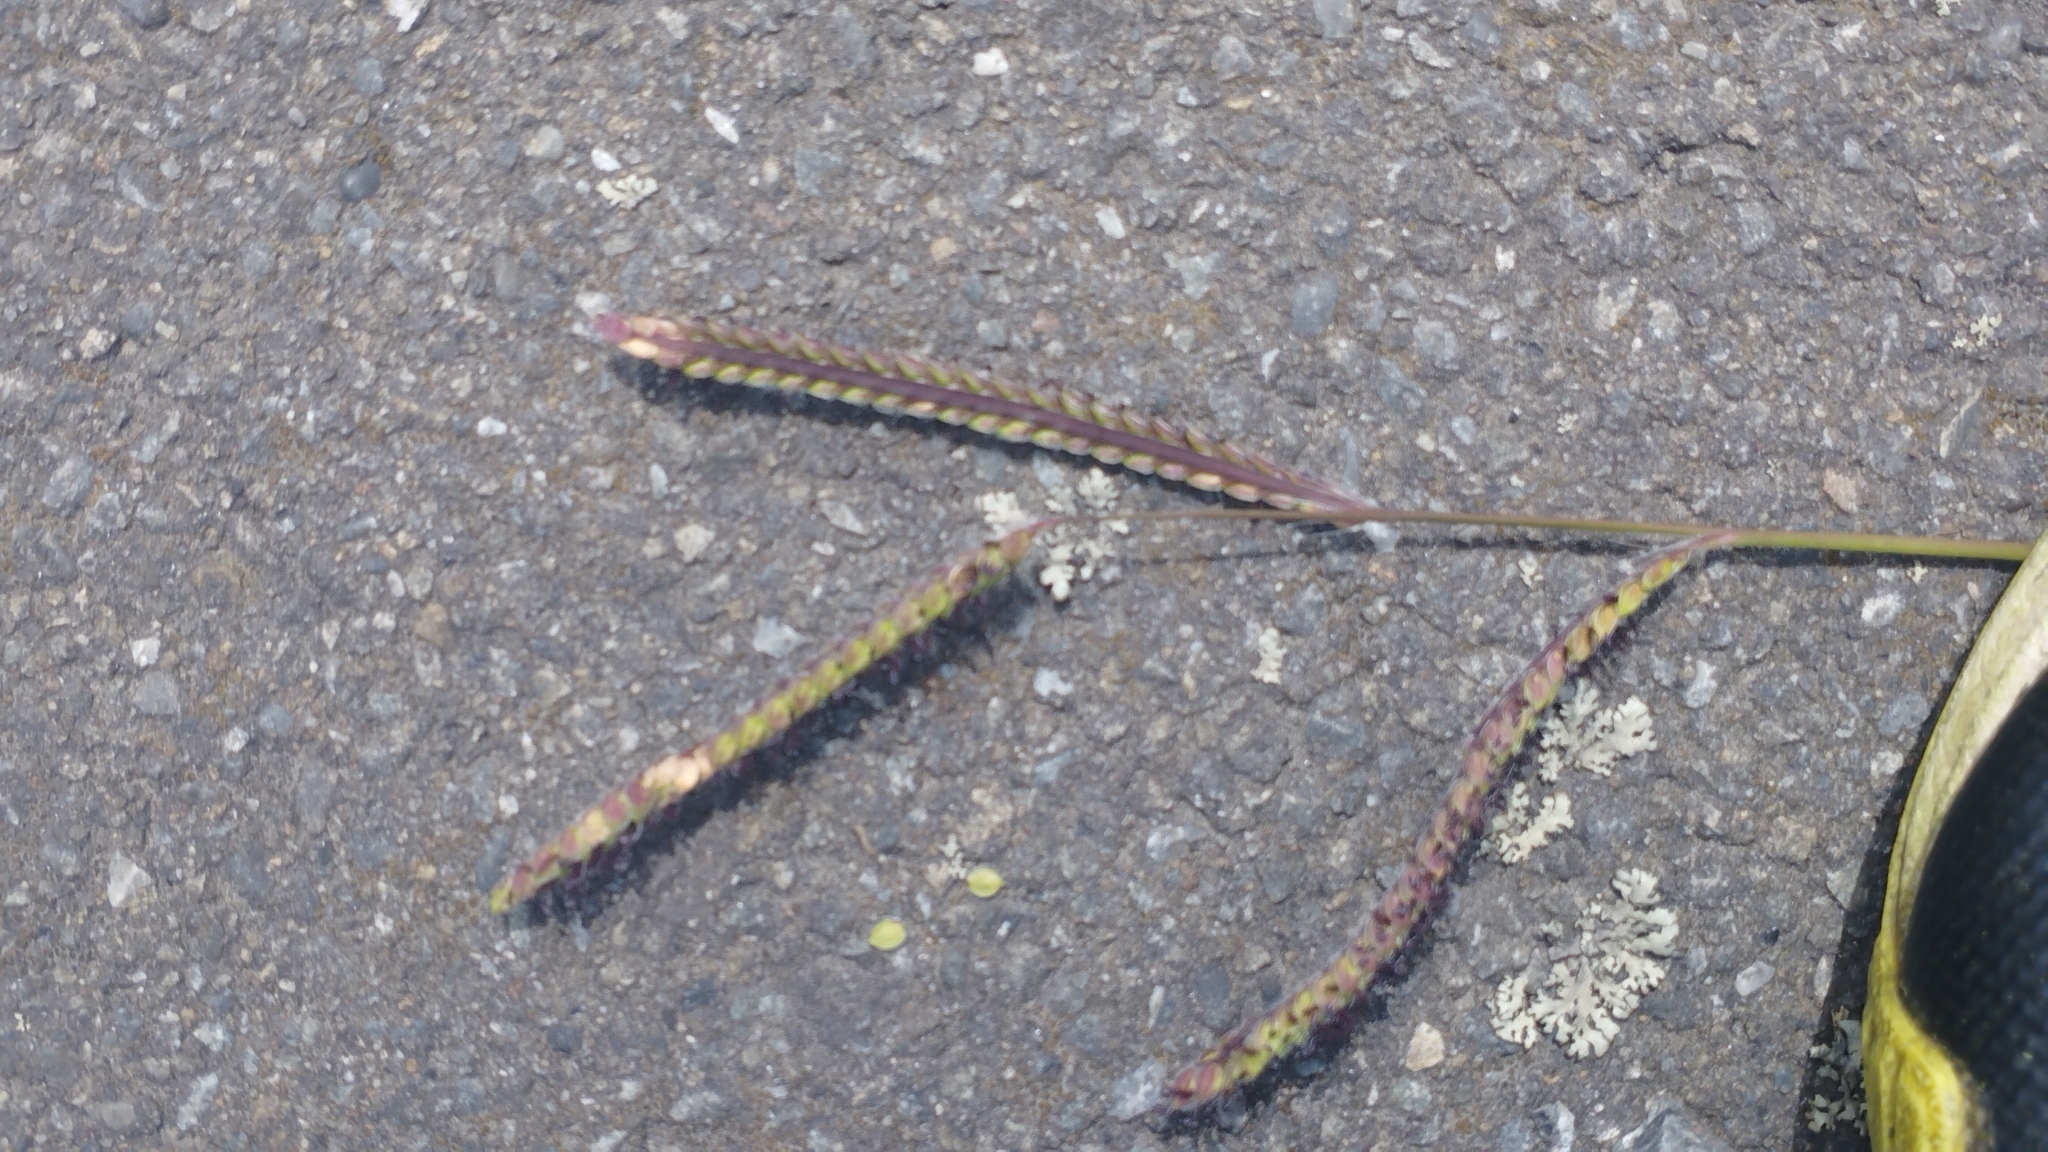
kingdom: Plantae
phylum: Tracheophyta
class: Liliopsida
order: Poales
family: Poaceae
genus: Paspalum
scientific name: Paspalum dilatatum
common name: Dallisgrass
